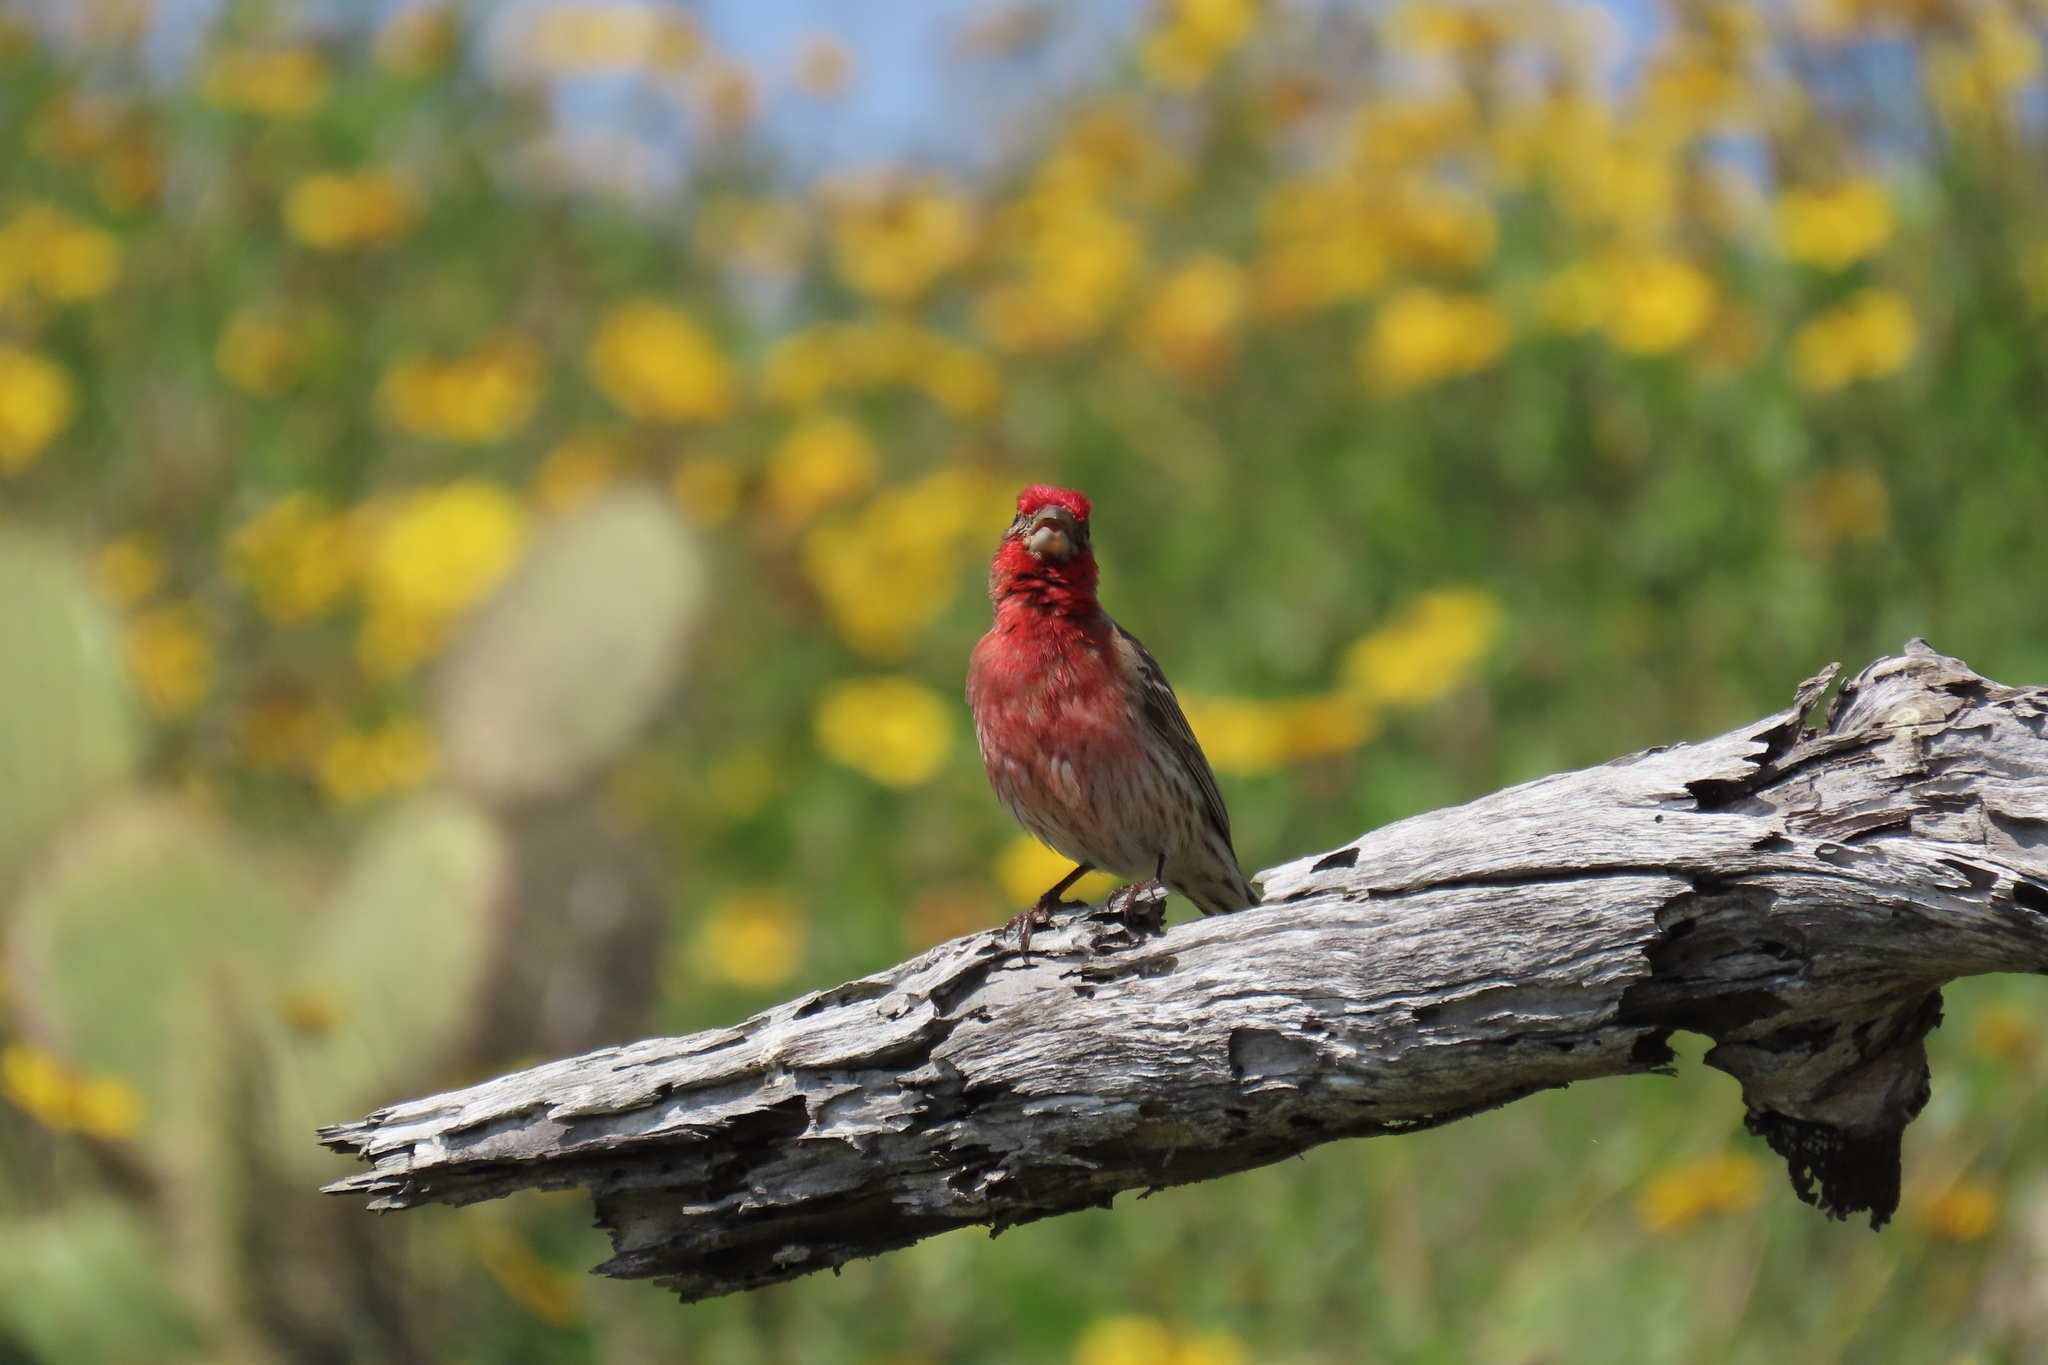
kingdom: Animalia
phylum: Chordata
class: Aves
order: Passeriformes
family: Fringillidae
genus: Haemorhous
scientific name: Haemorhous mexicanus
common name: House finch
